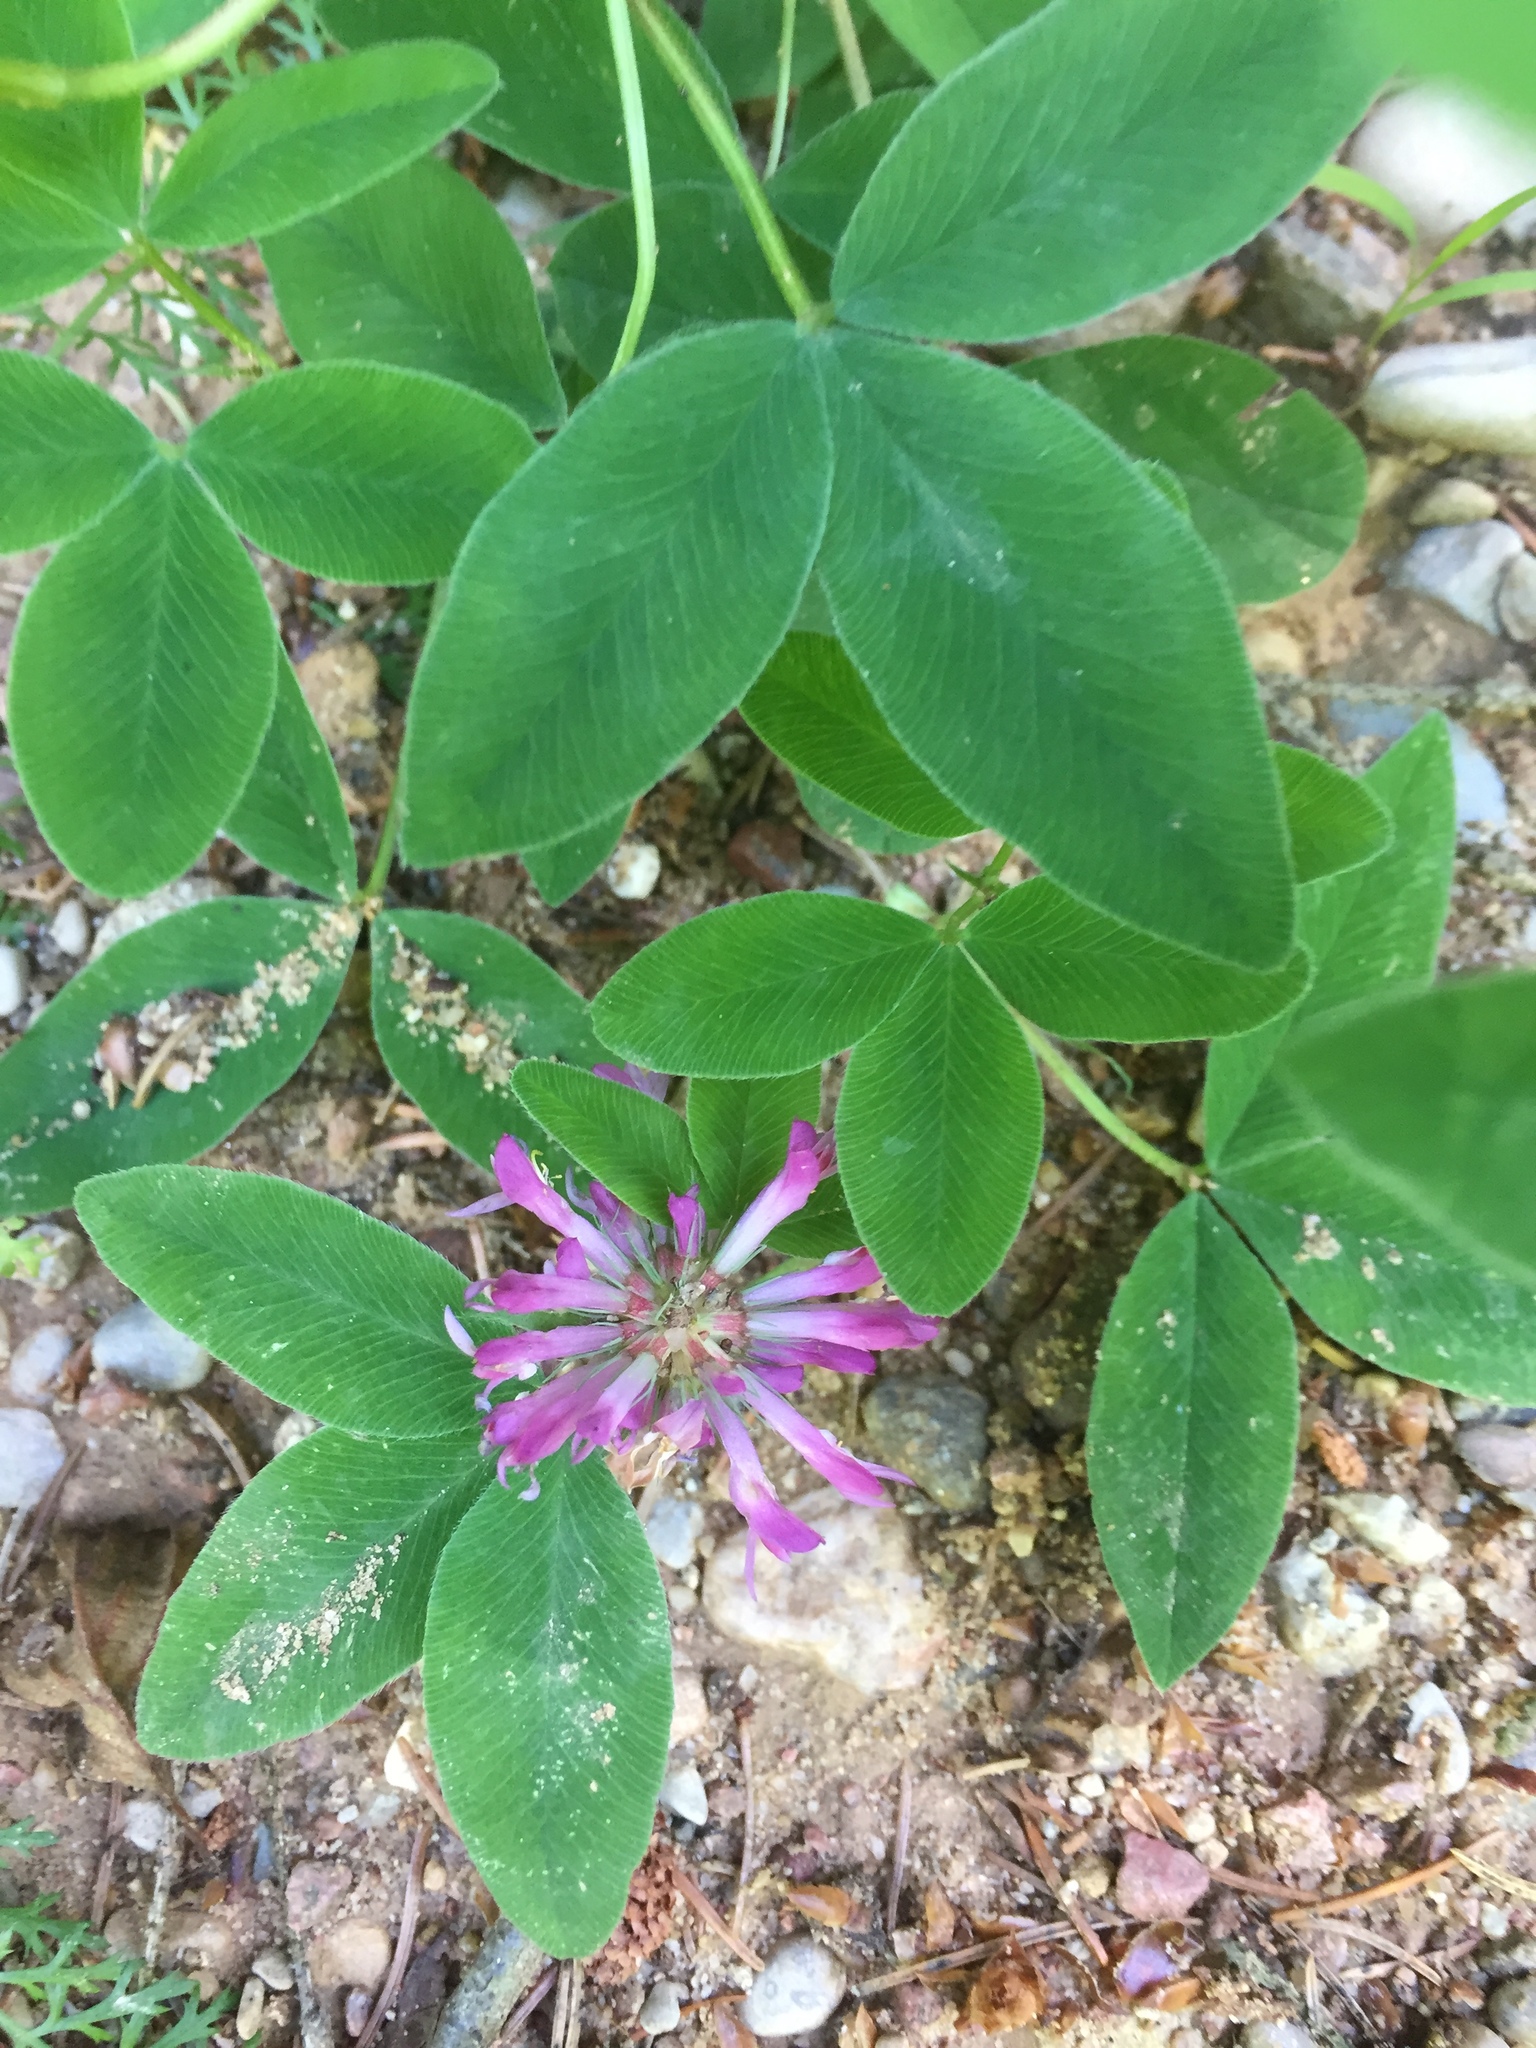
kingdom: Plantae
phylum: Tracheophyta
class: Magnoliopsida
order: Fabales
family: Fabaceae
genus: Trifolium
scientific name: Trifolium medium
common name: Zigzag clover
